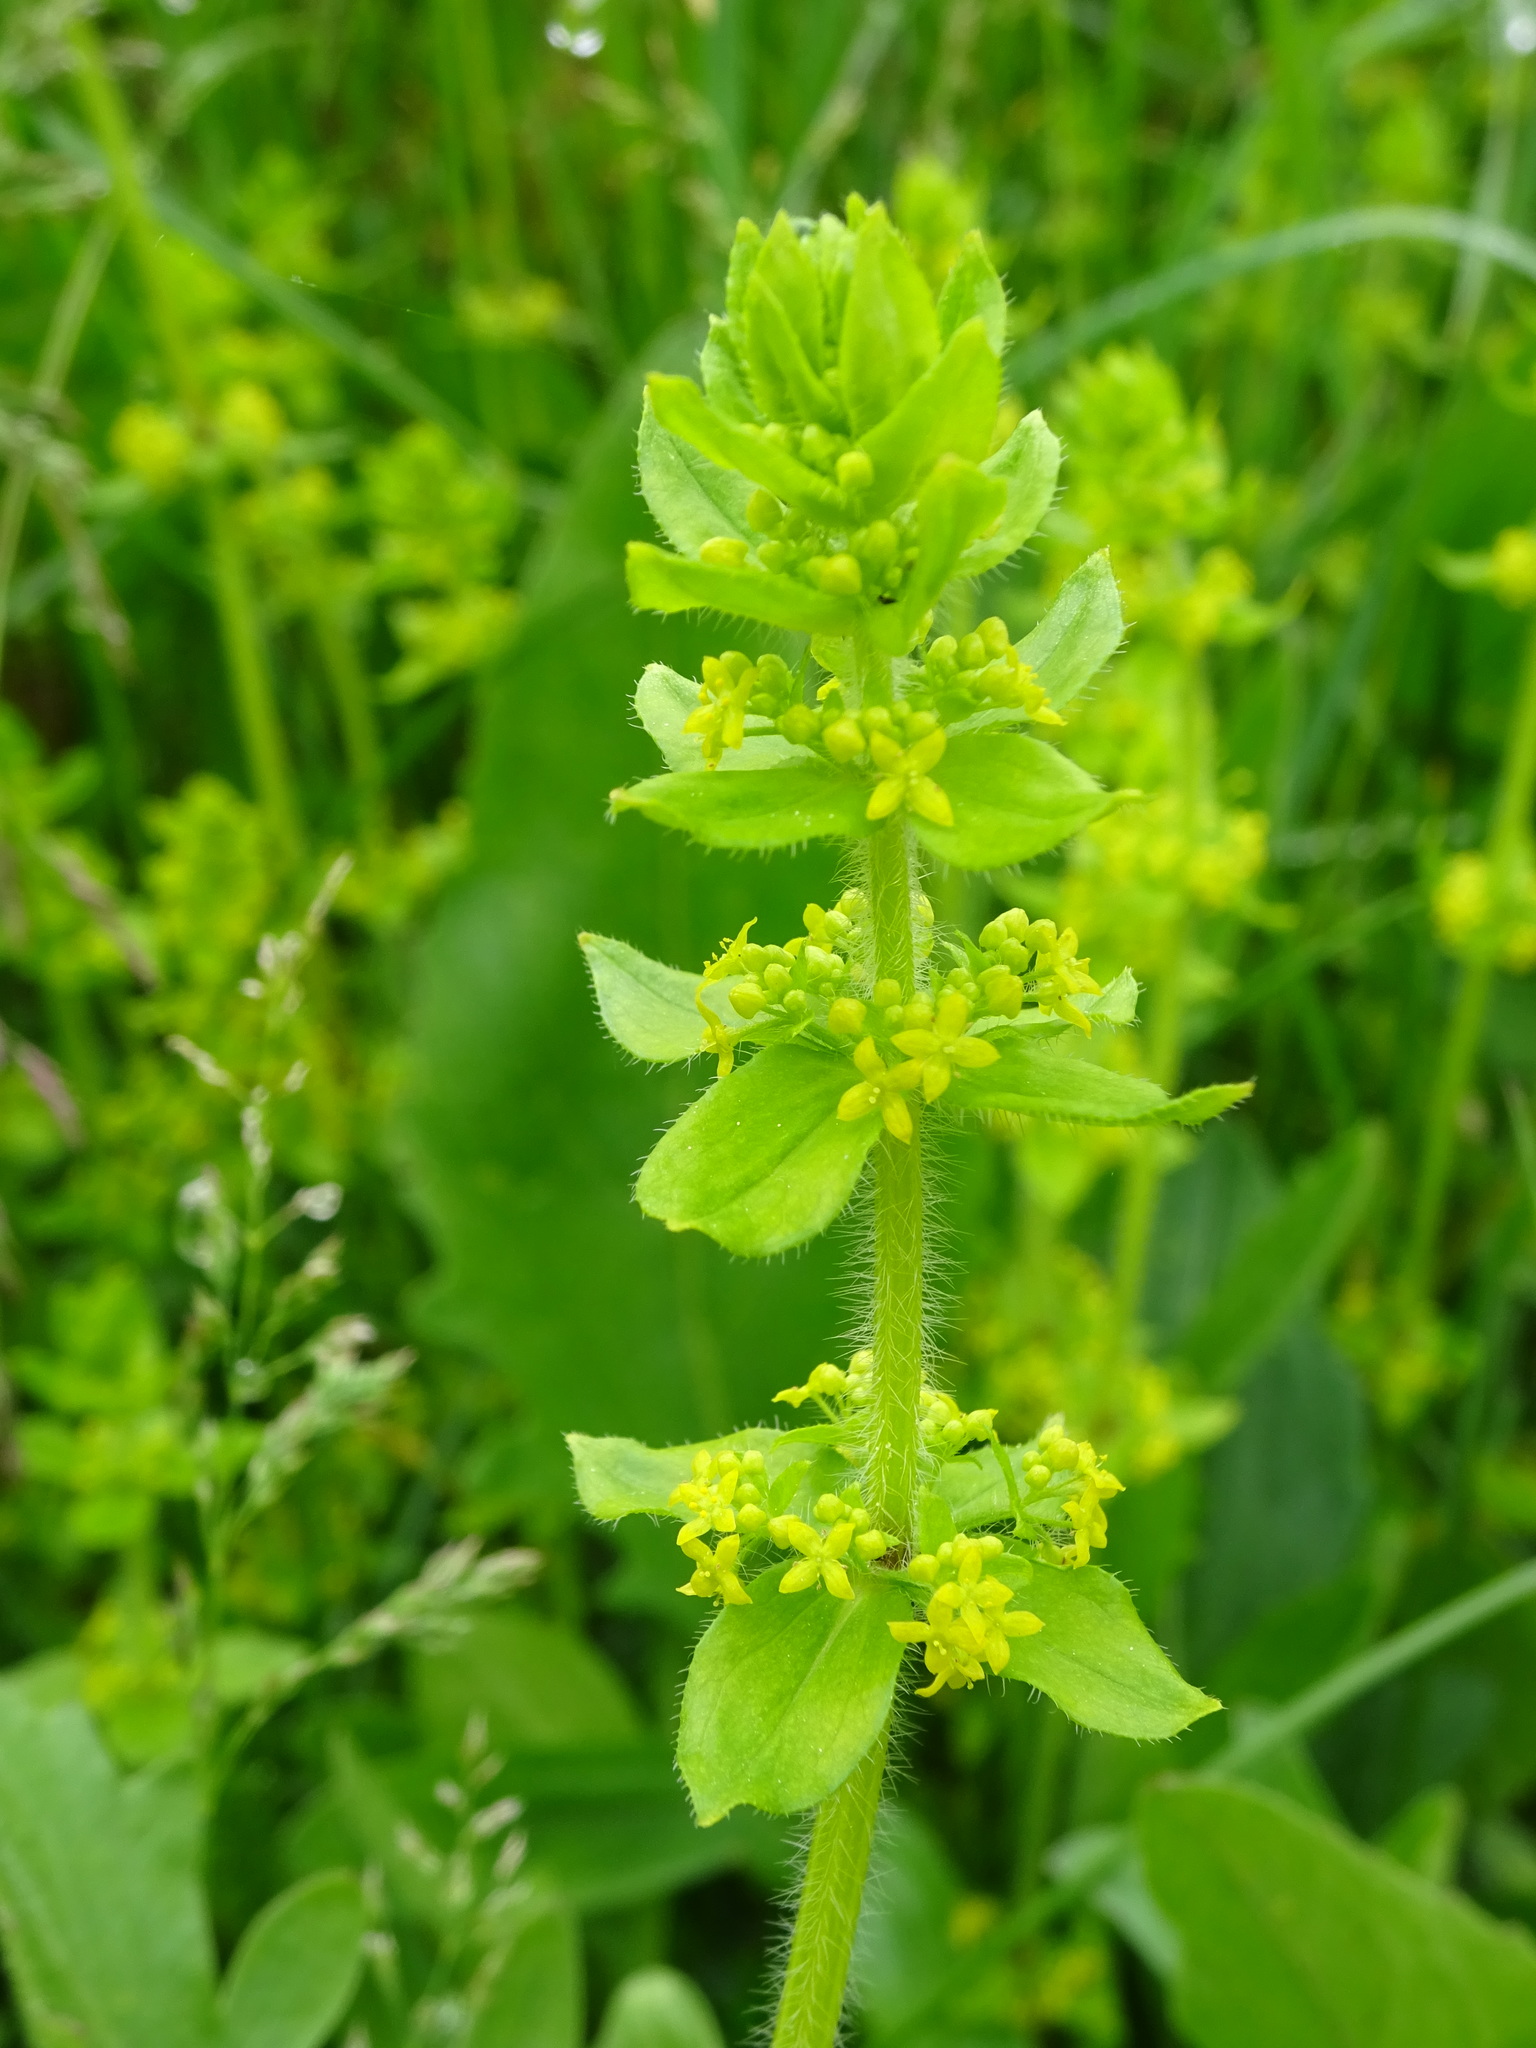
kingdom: Plantae
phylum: Tracheophyta
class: Magnoliopsida
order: Gentianales
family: Rubiaceae
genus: Cruciata
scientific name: Cruciata laevipes
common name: Crosswort
